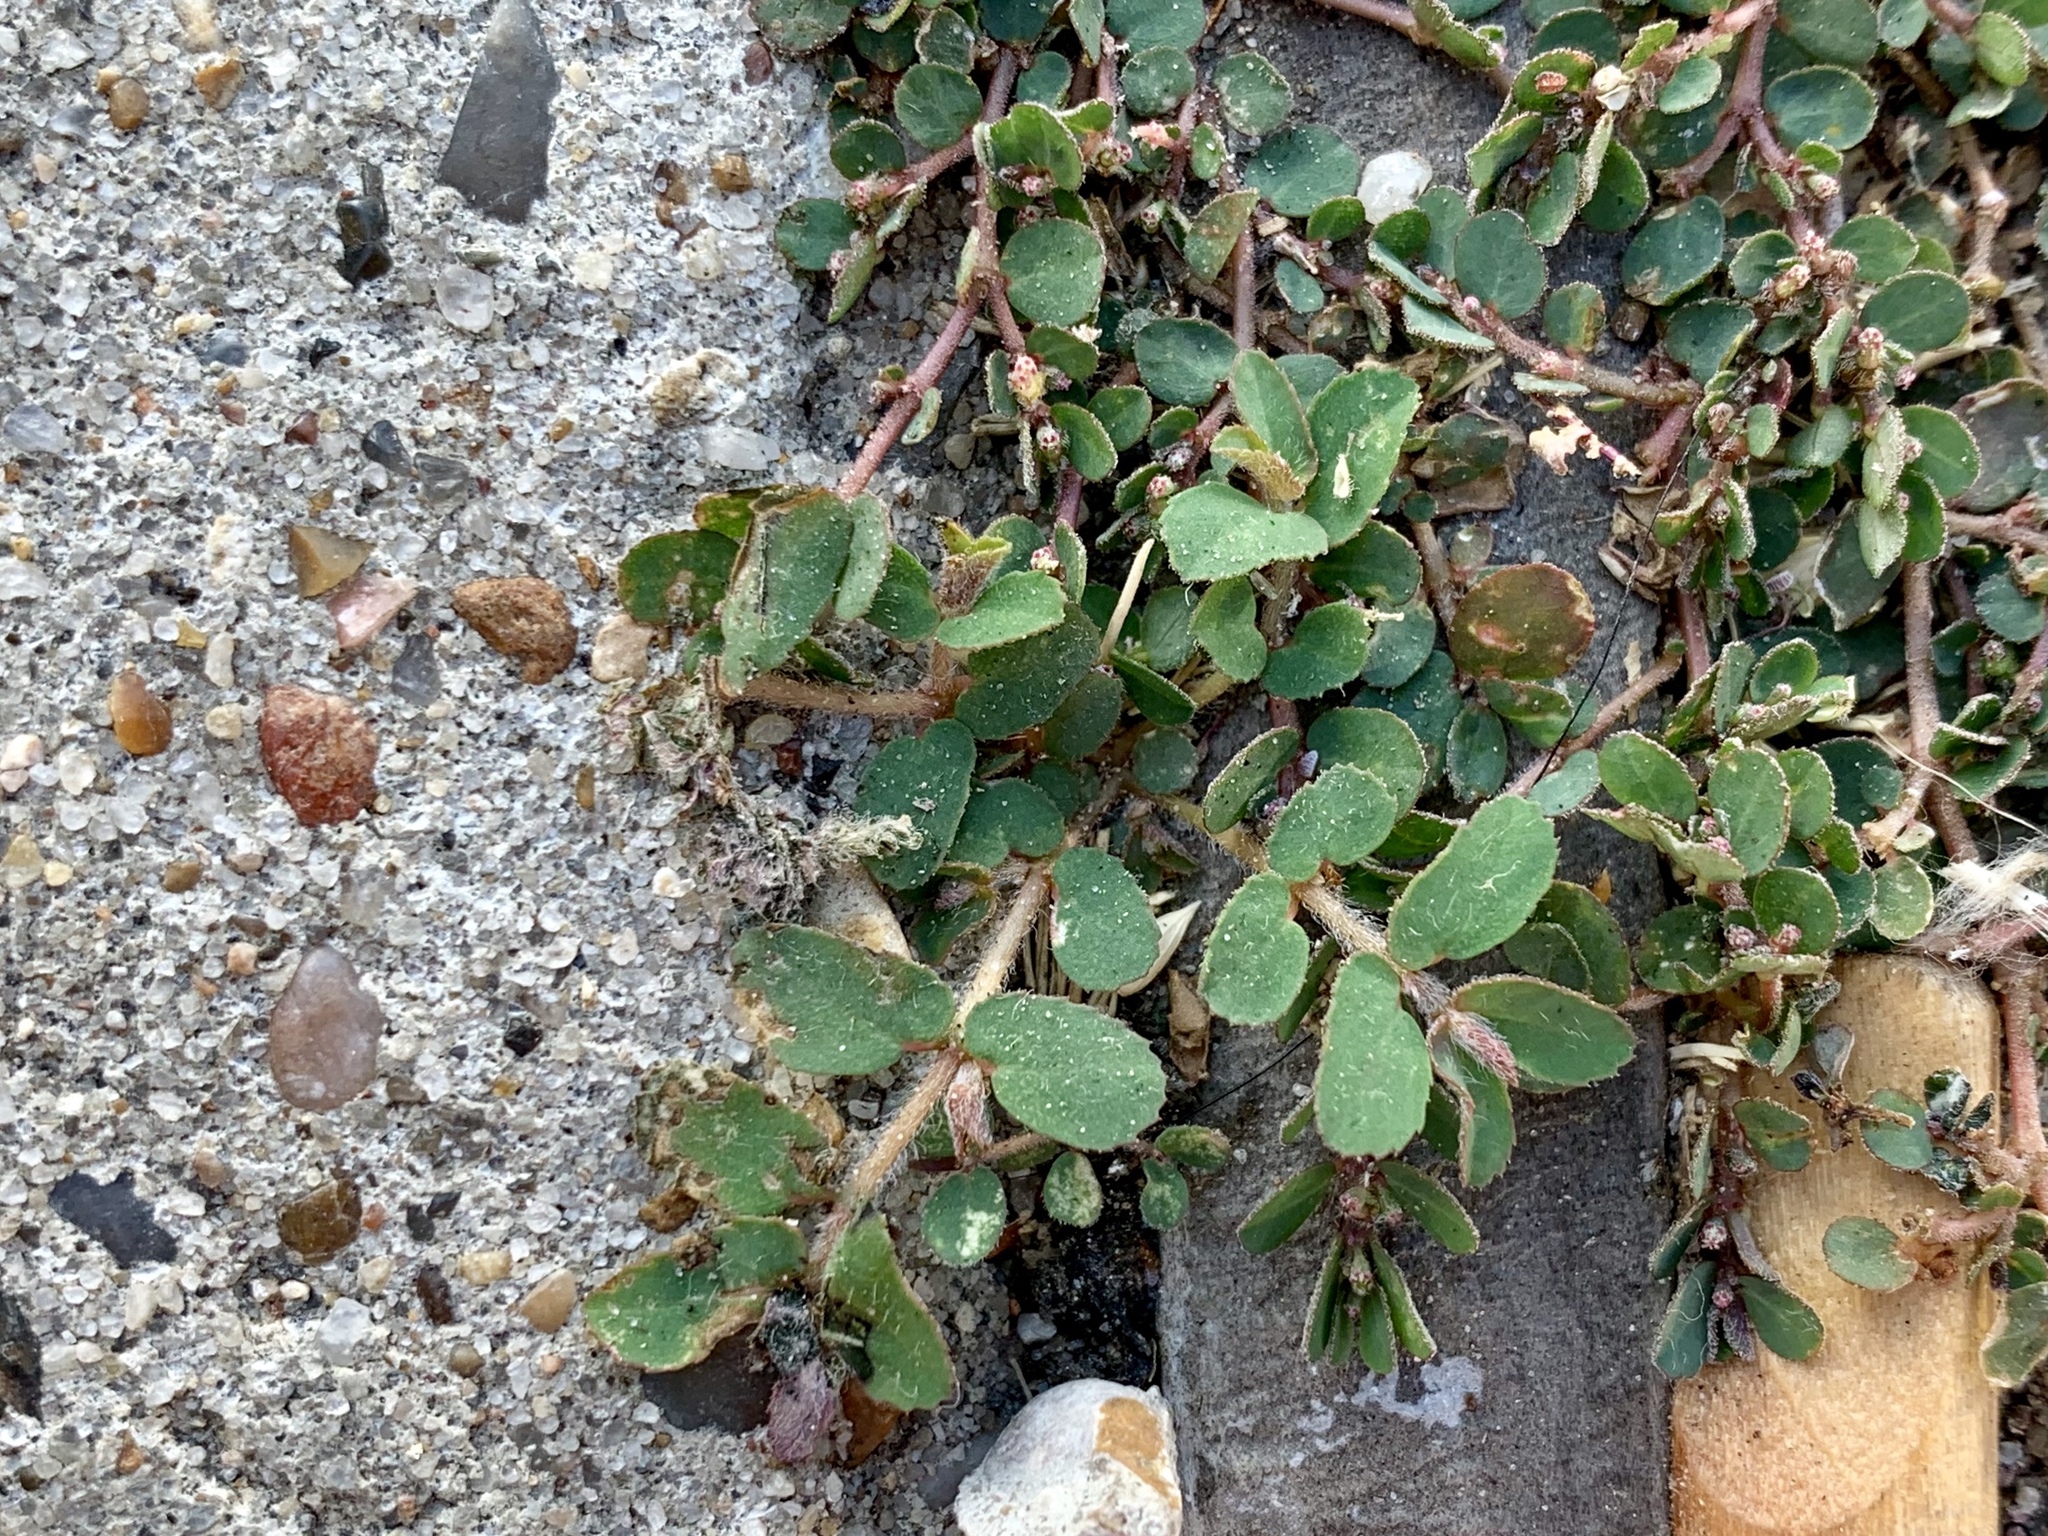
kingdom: Plantae
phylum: Tracheophyta
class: Magnoliopsida
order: Malpighiales
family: Euphorbiaceae
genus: Euphorbia
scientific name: Euphorbia prostrata
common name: Prostrate sandmat
